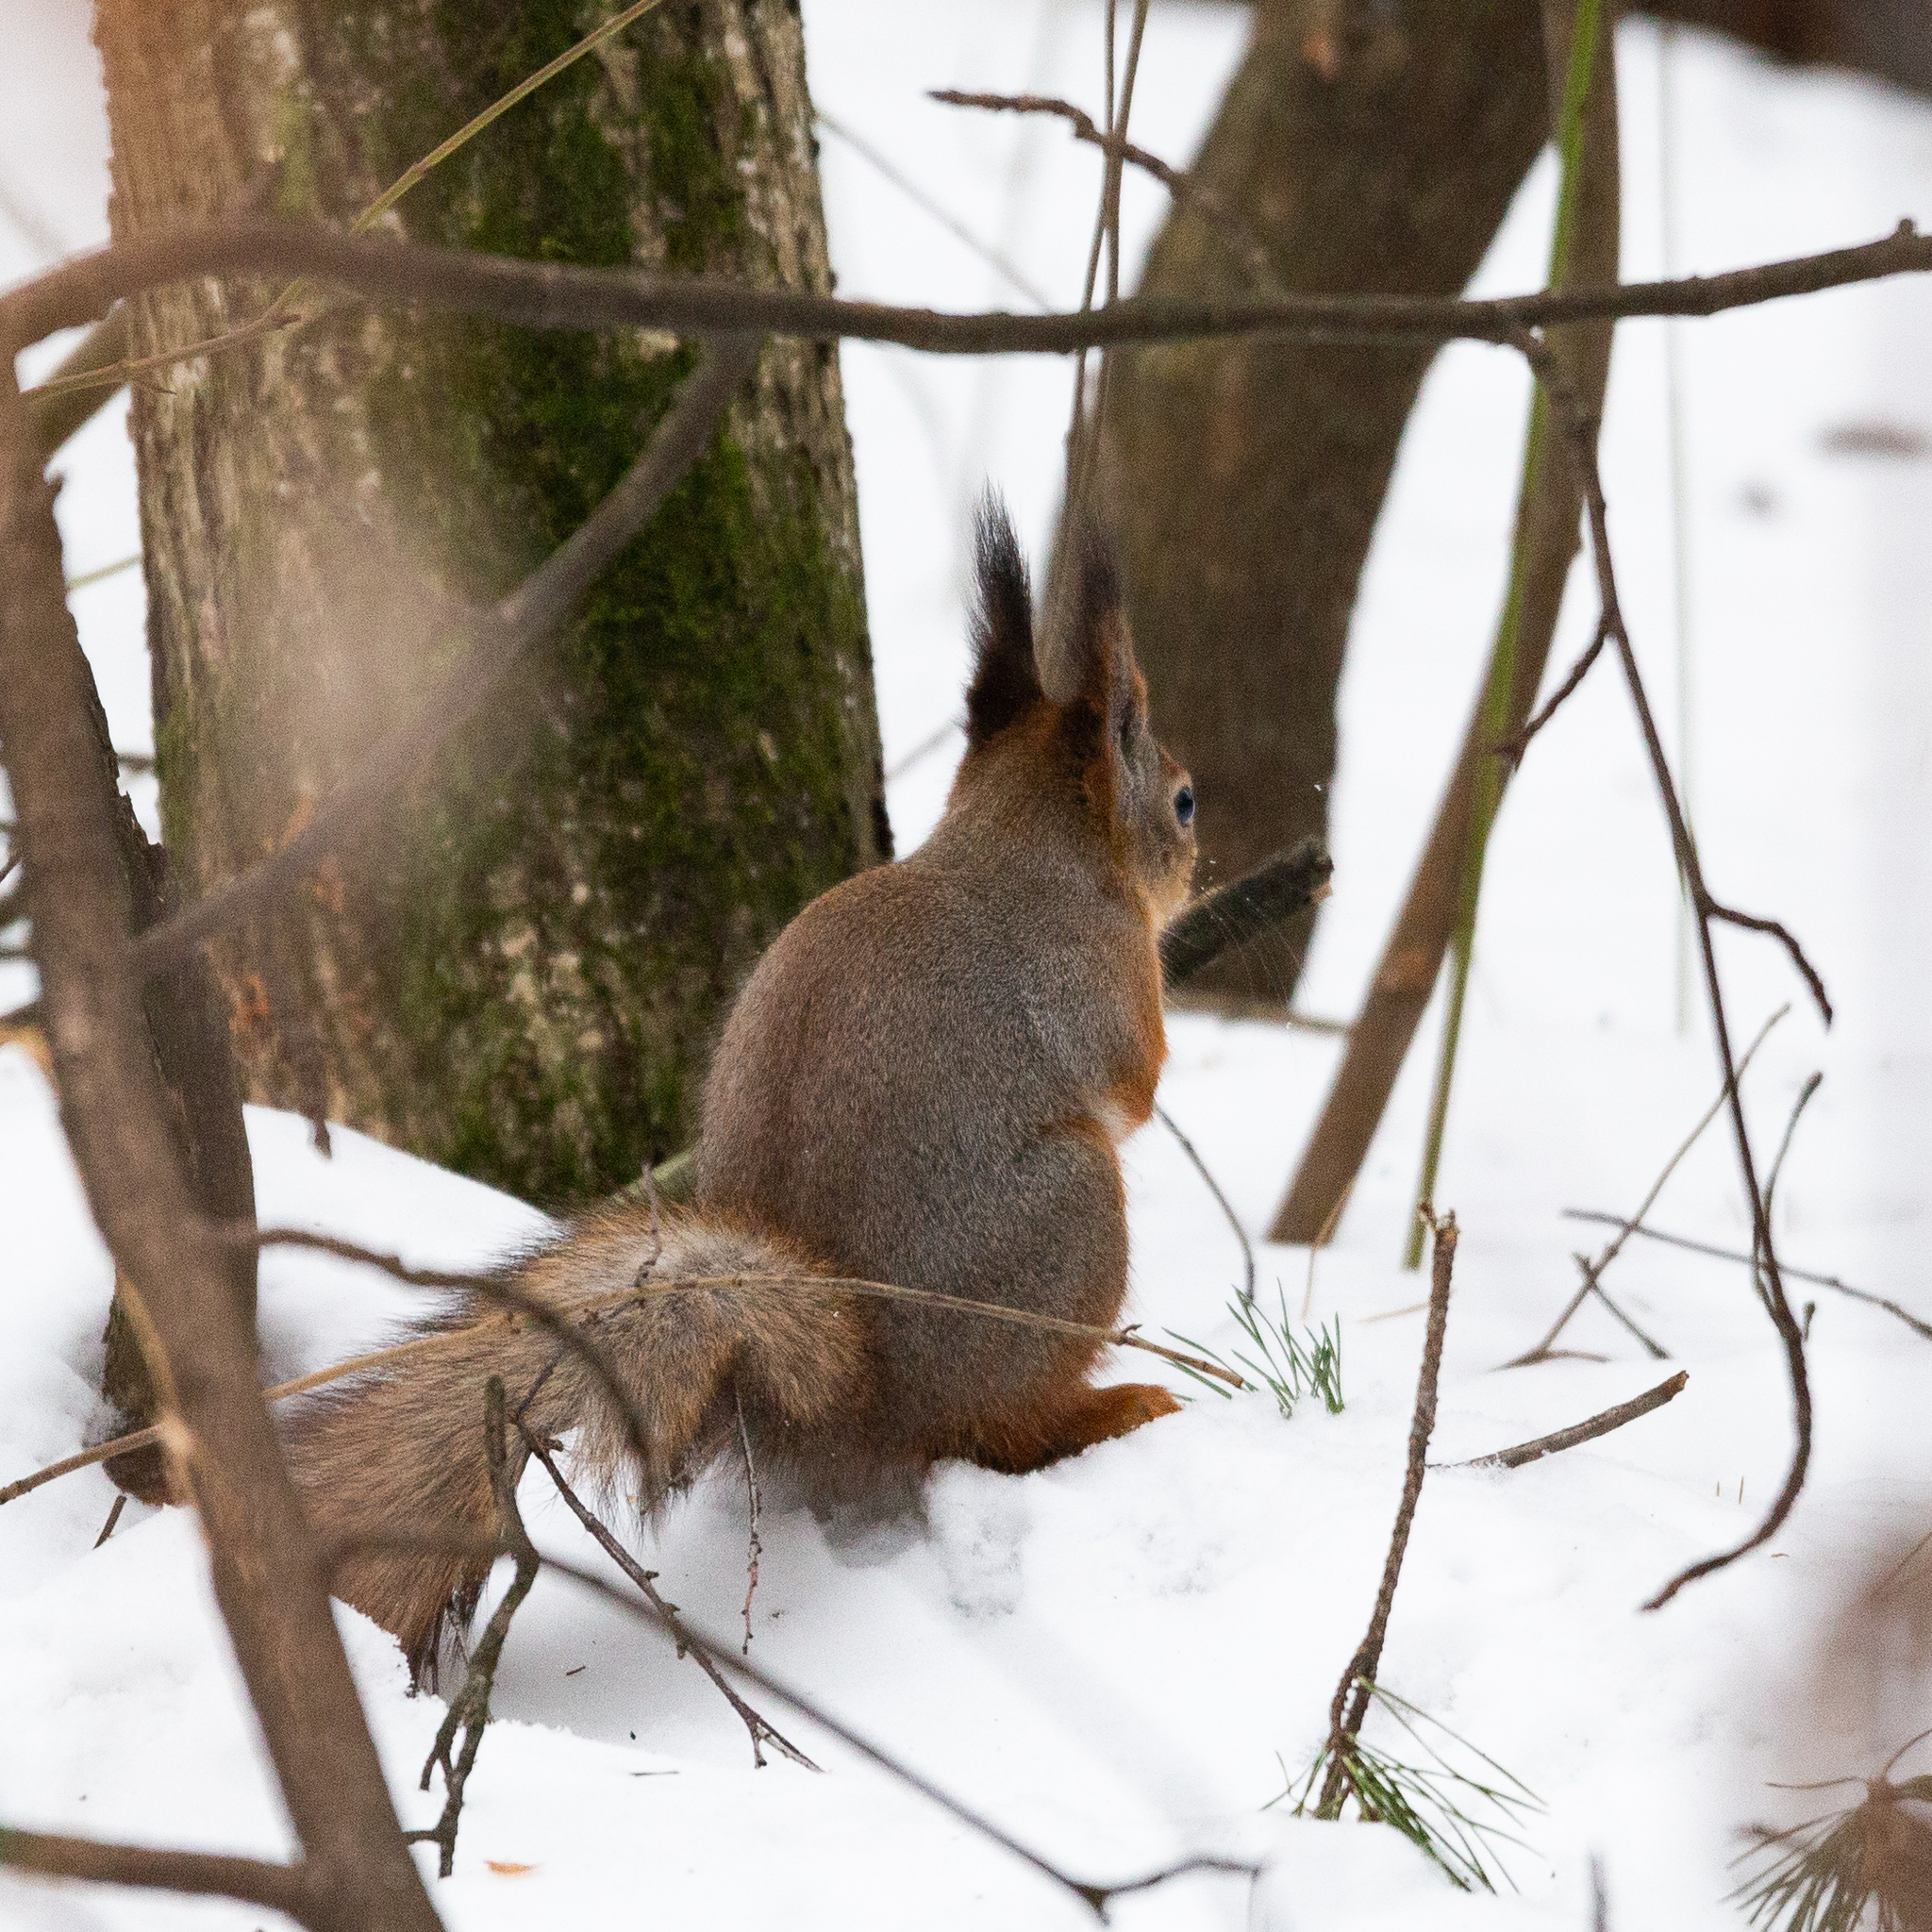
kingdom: Animalia
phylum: Chordata
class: Mammalia
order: Rodentia
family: Sciuridae
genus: Sciurus
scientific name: Sciurus vulgaris
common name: Eurasian red squirrel
